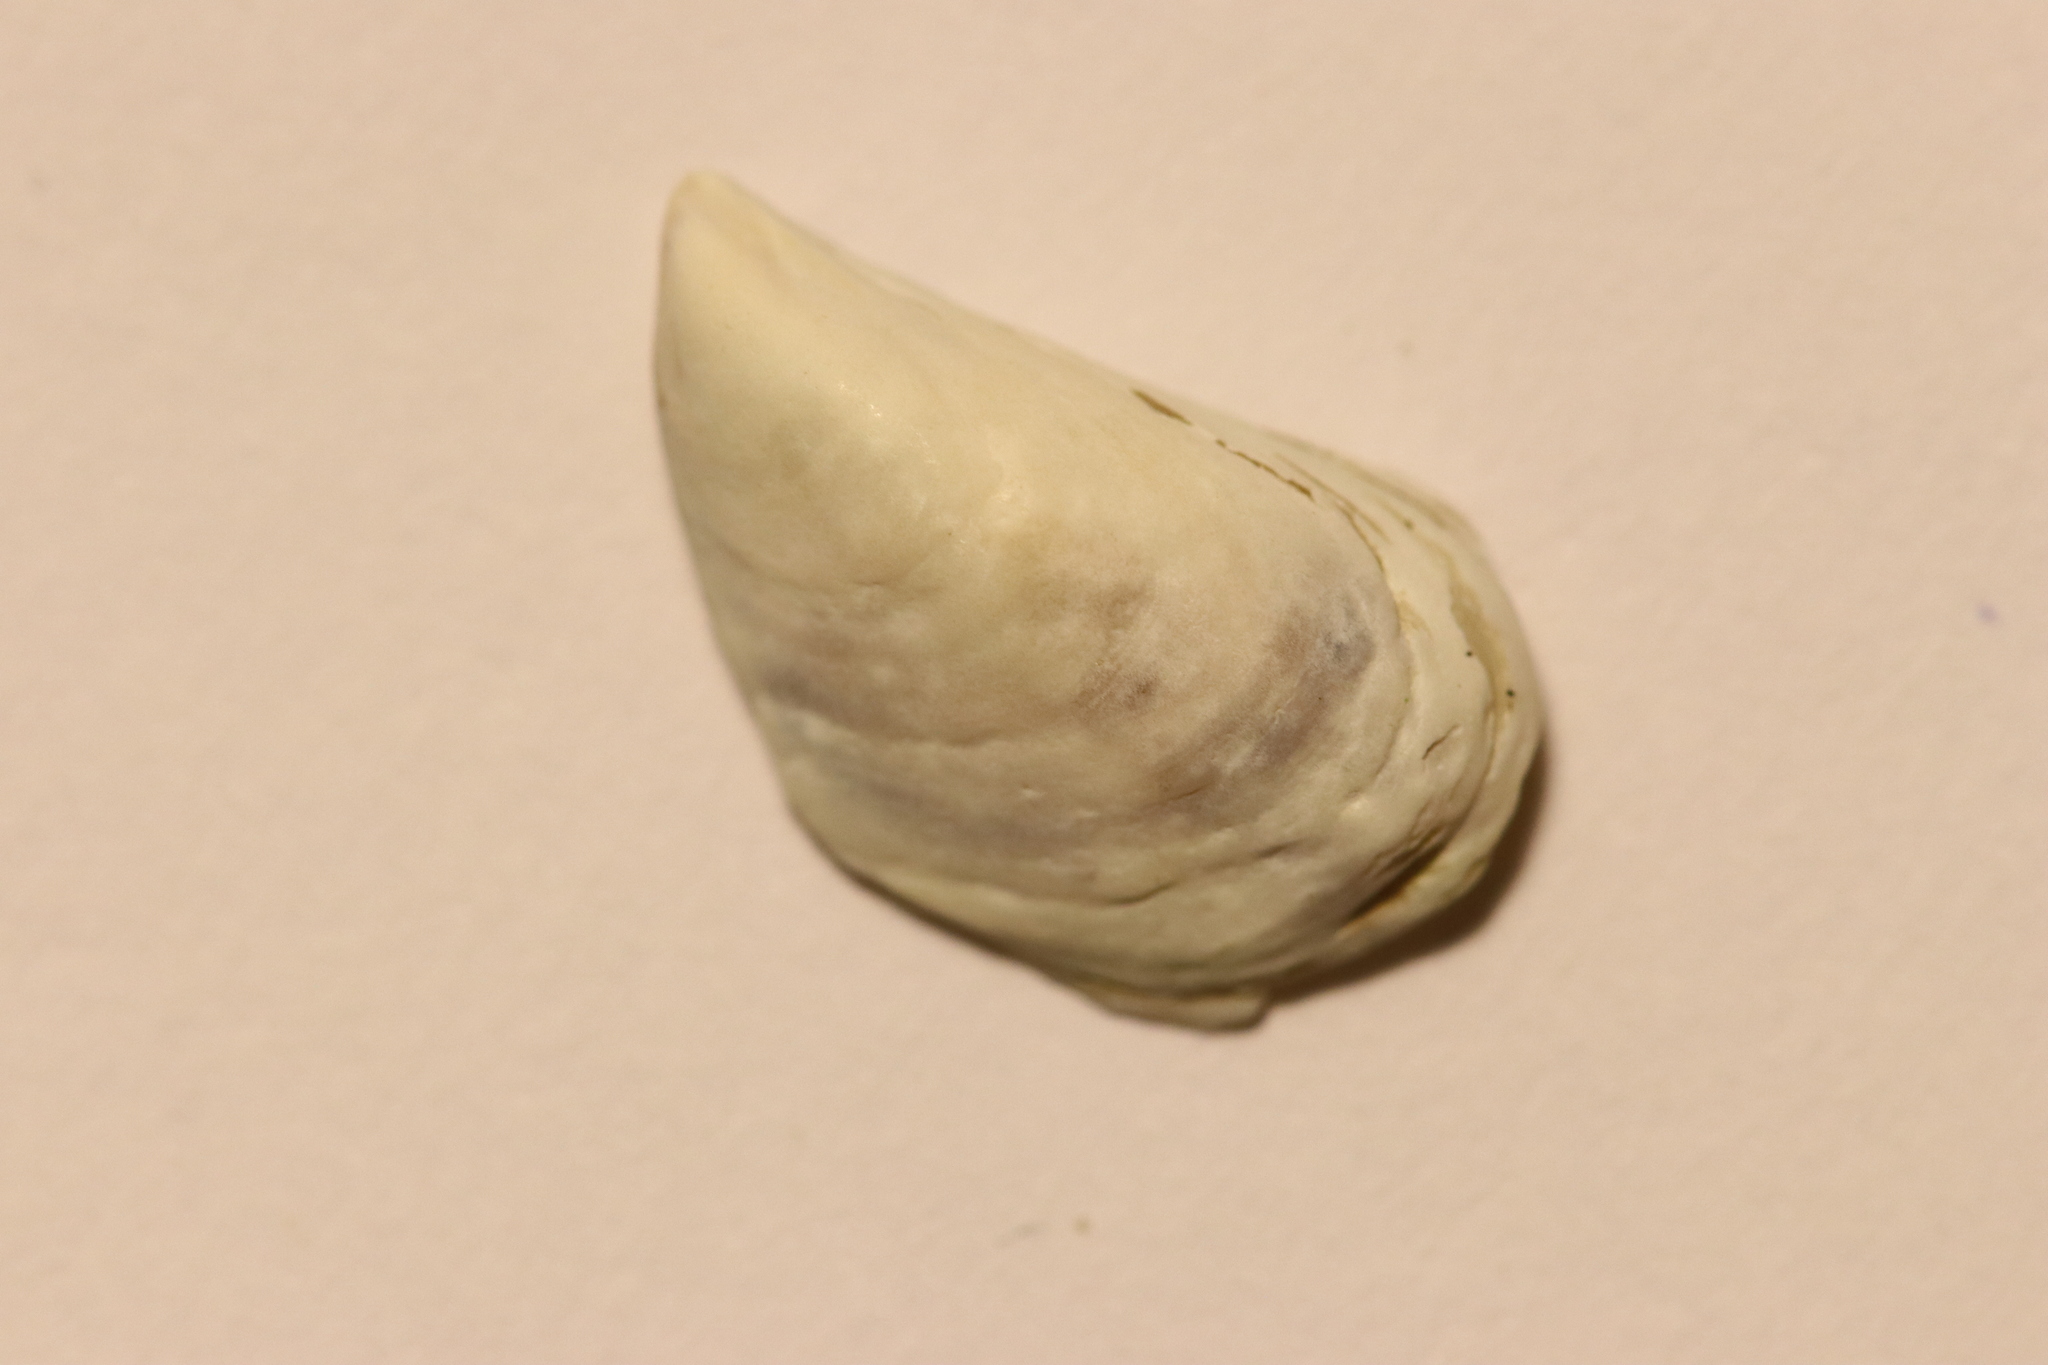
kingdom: Animalia
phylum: Mollusca
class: Bivalvia
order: Myida
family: Dreissenidae
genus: Dreissena
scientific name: Dreissena bugensis
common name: Quagga mussel
